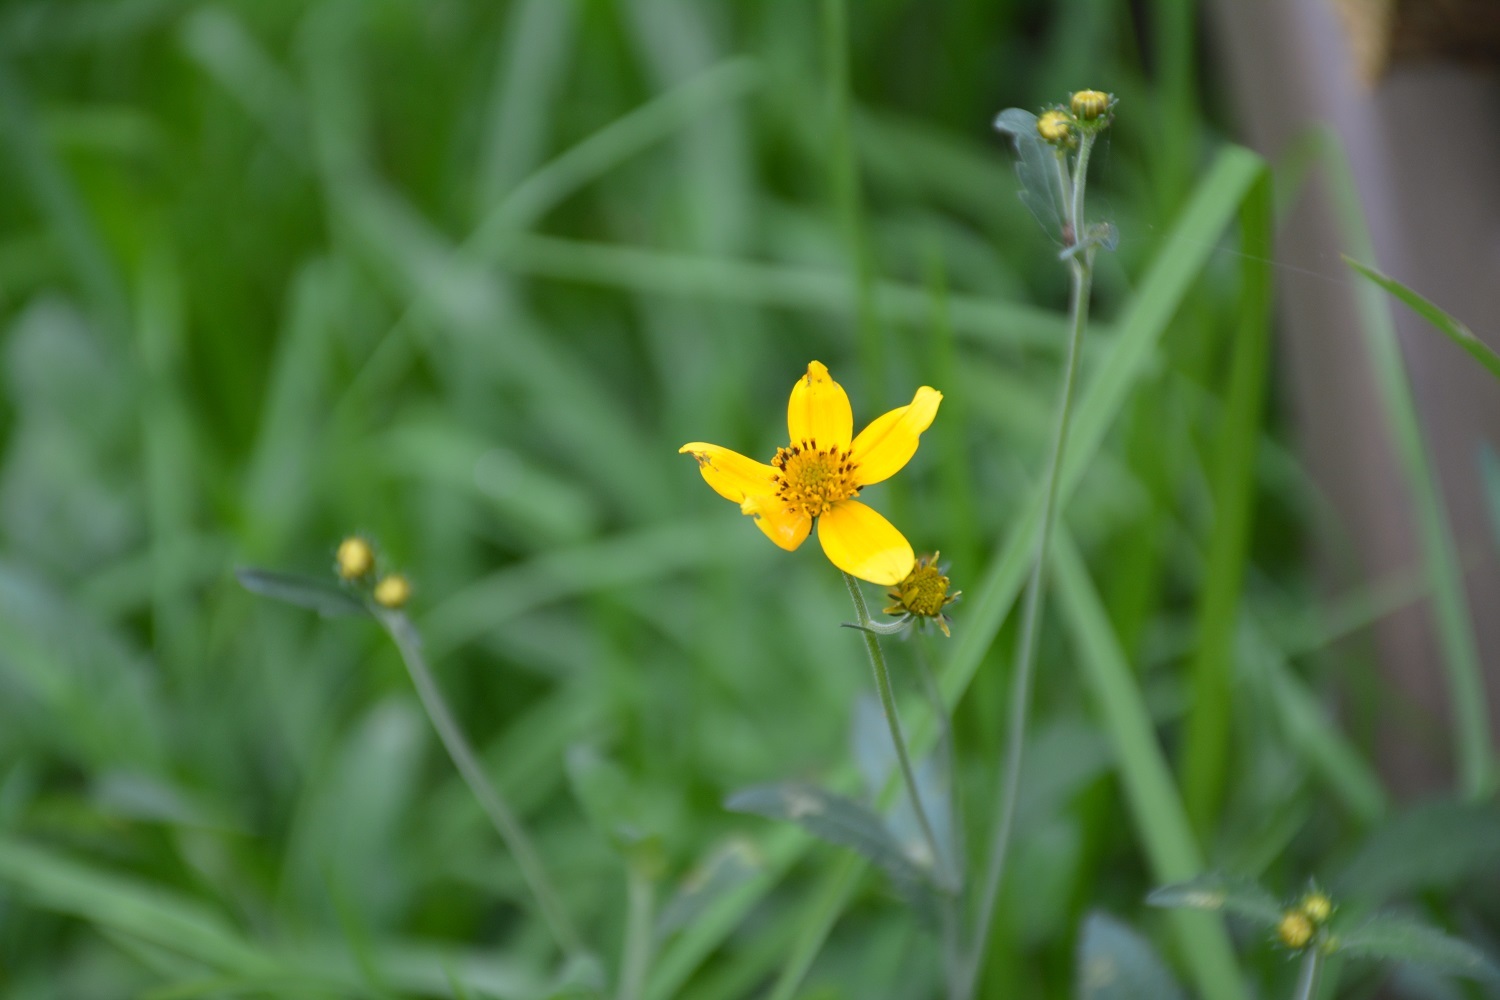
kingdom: Plantae
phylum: Tracheophyta
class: Magnoliopsida
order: Asterales
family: Asteraceae
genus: Bidens
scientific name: Bidens aurea
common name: Arizona beggar-ticks
